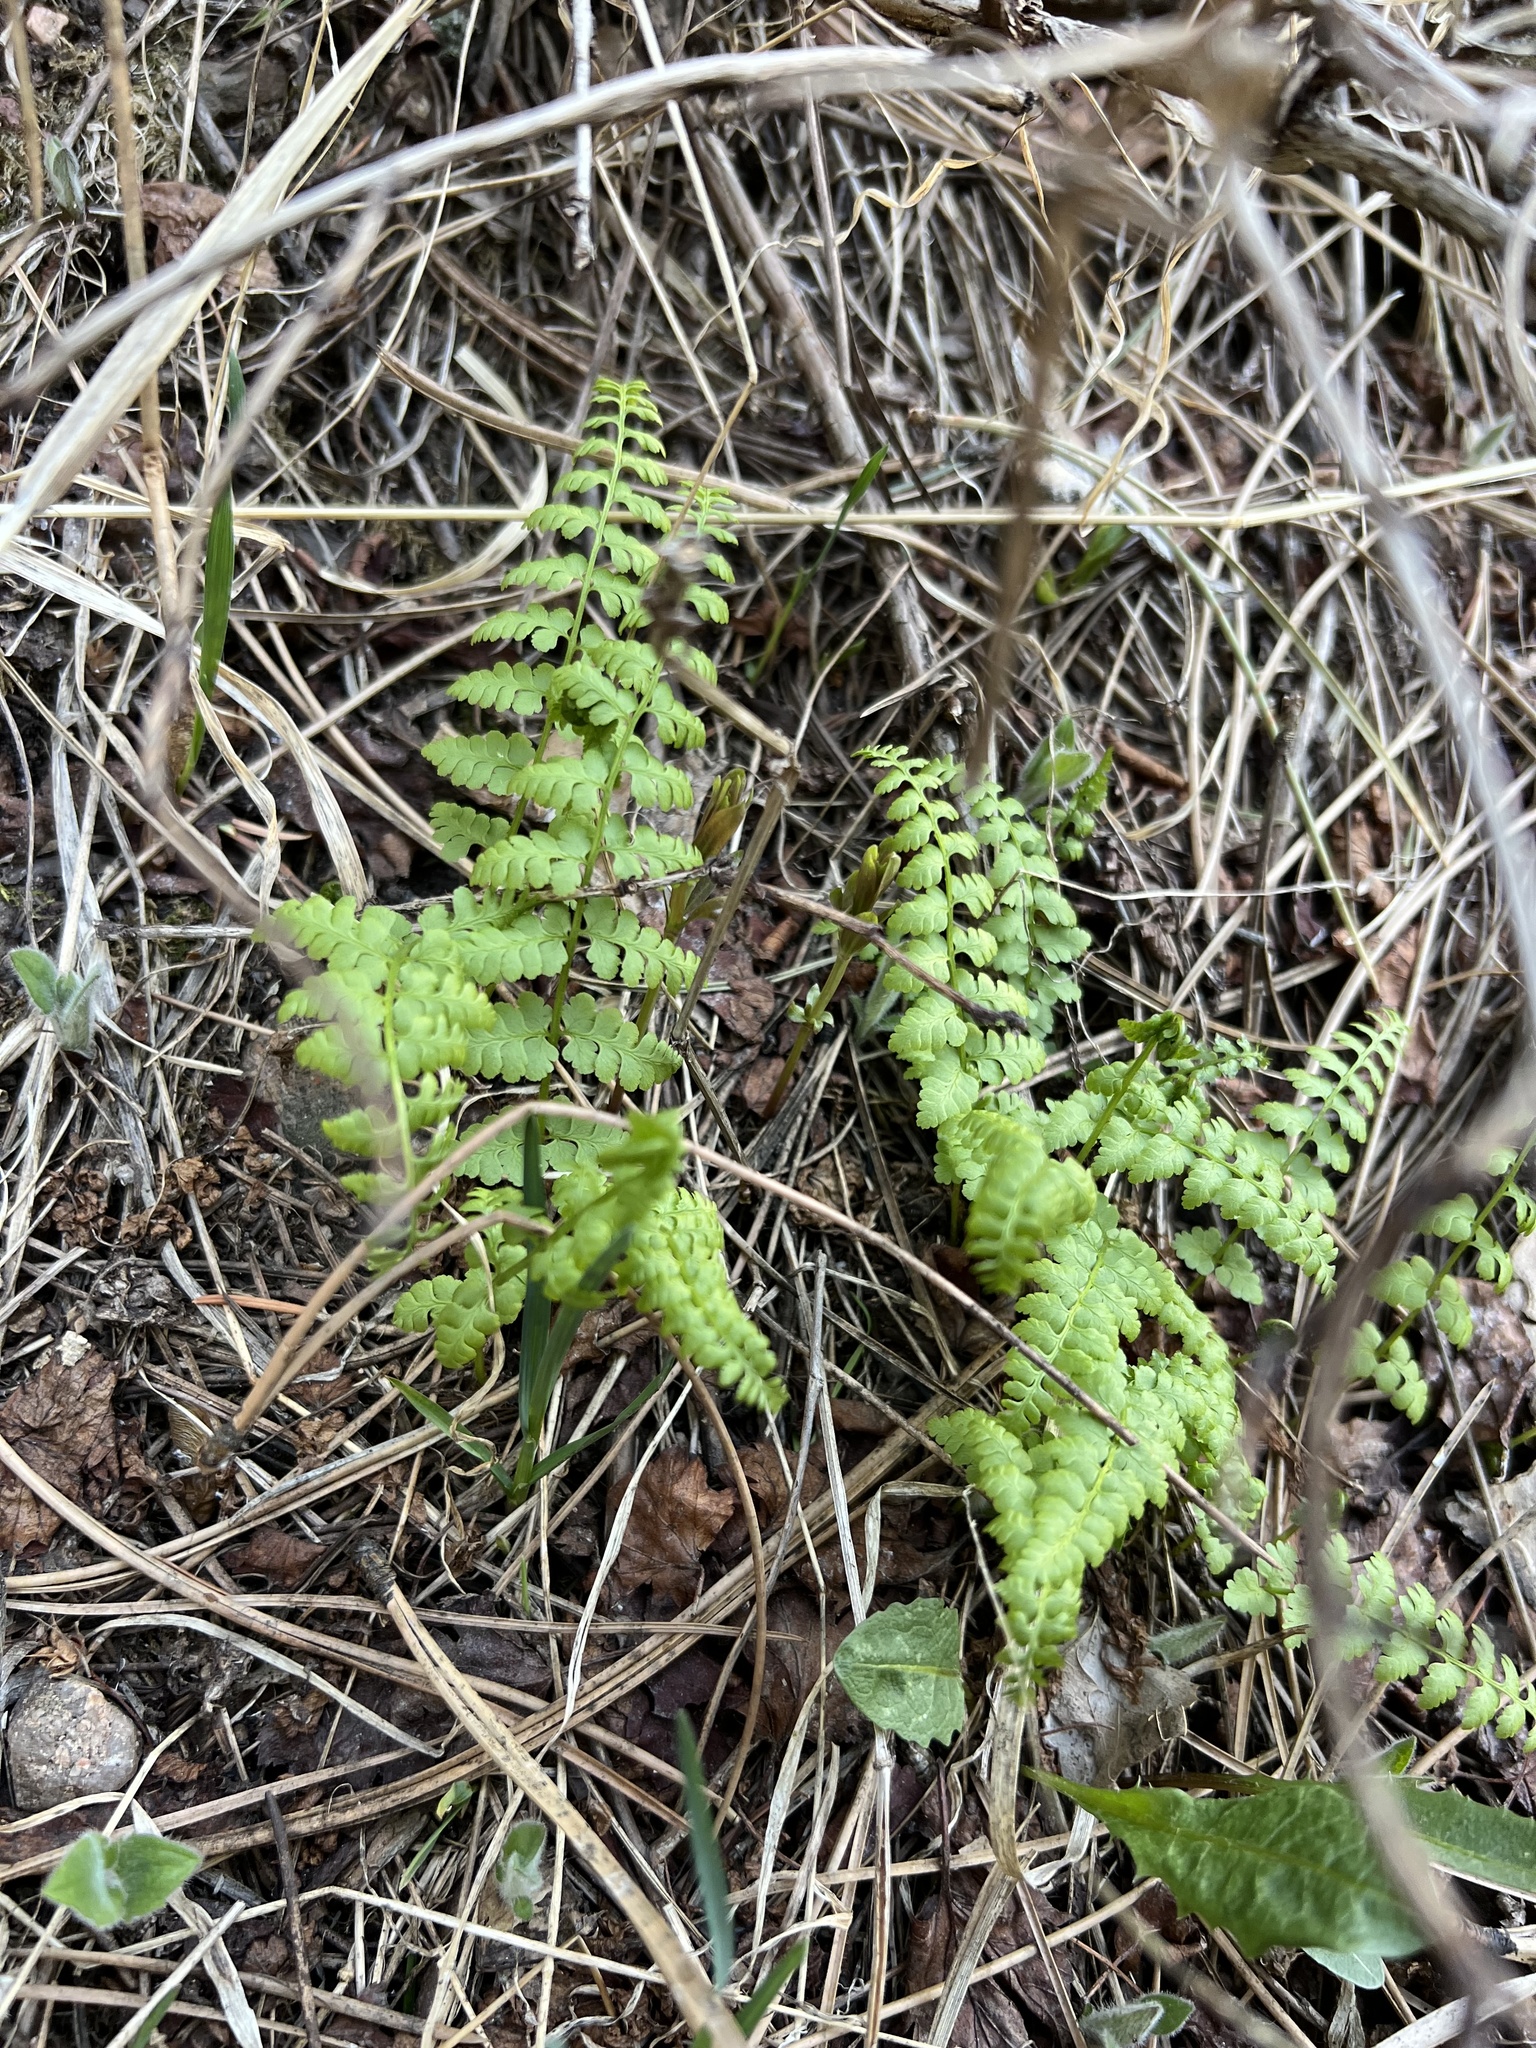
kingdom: Plantae
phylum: Tracheophyta
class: Polypodiopsida
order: Polypodiales
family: Cystopteridaceae
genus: Cystopteris
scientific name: Cystopteris fragilis
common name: Brittle bladder fern
